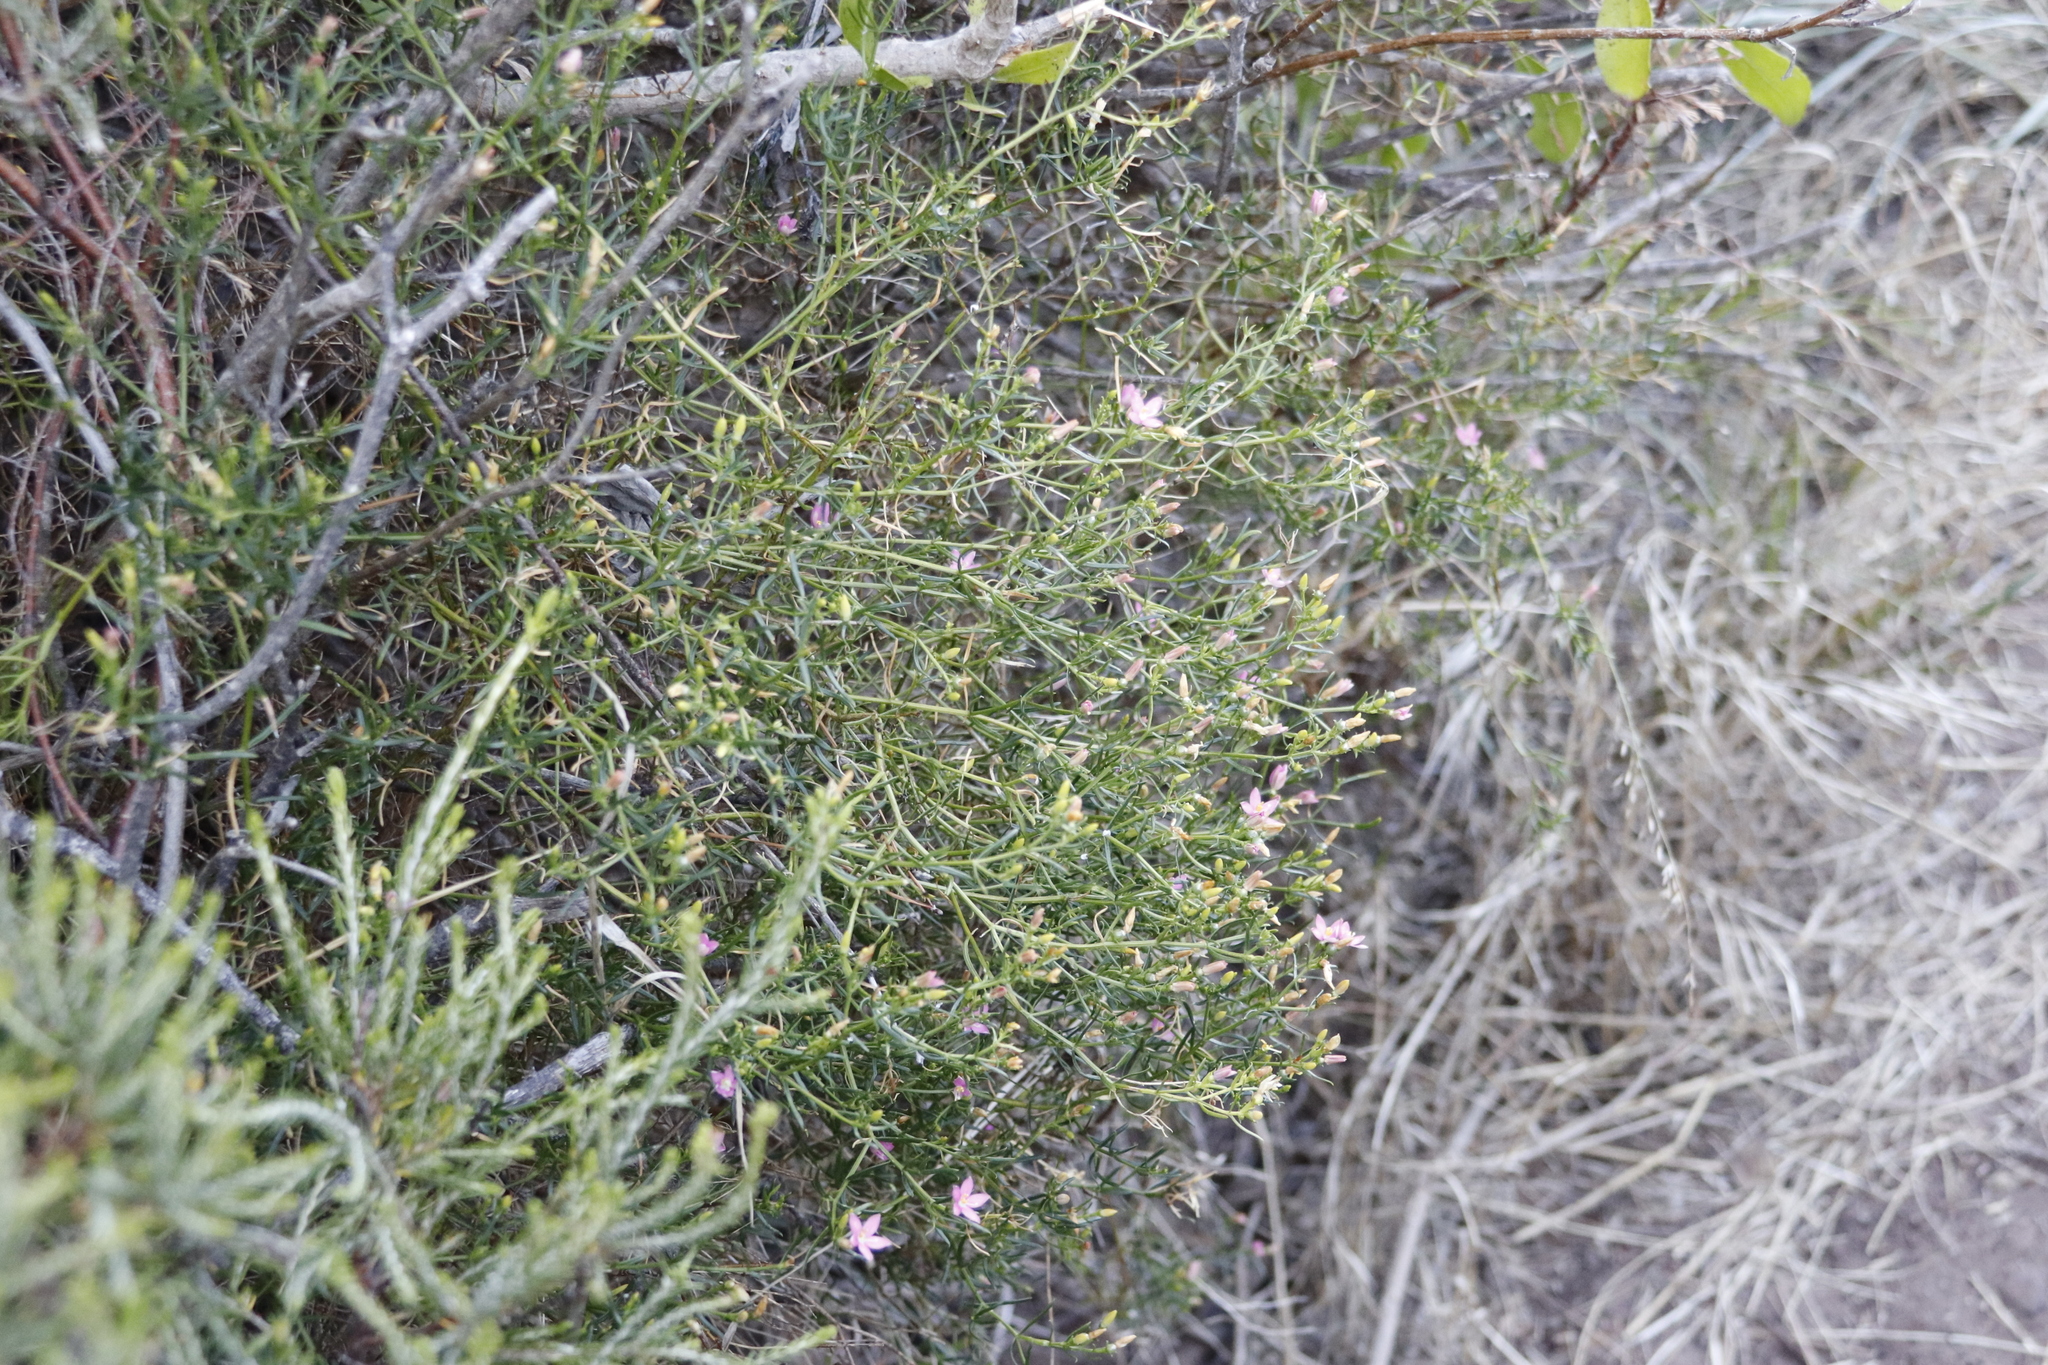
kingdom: Plantae
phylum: Tracheophyta
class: Magnoliopsida
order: Gentianales
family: Gentianaceae
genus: Chironia
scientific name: Chironia baccifera
